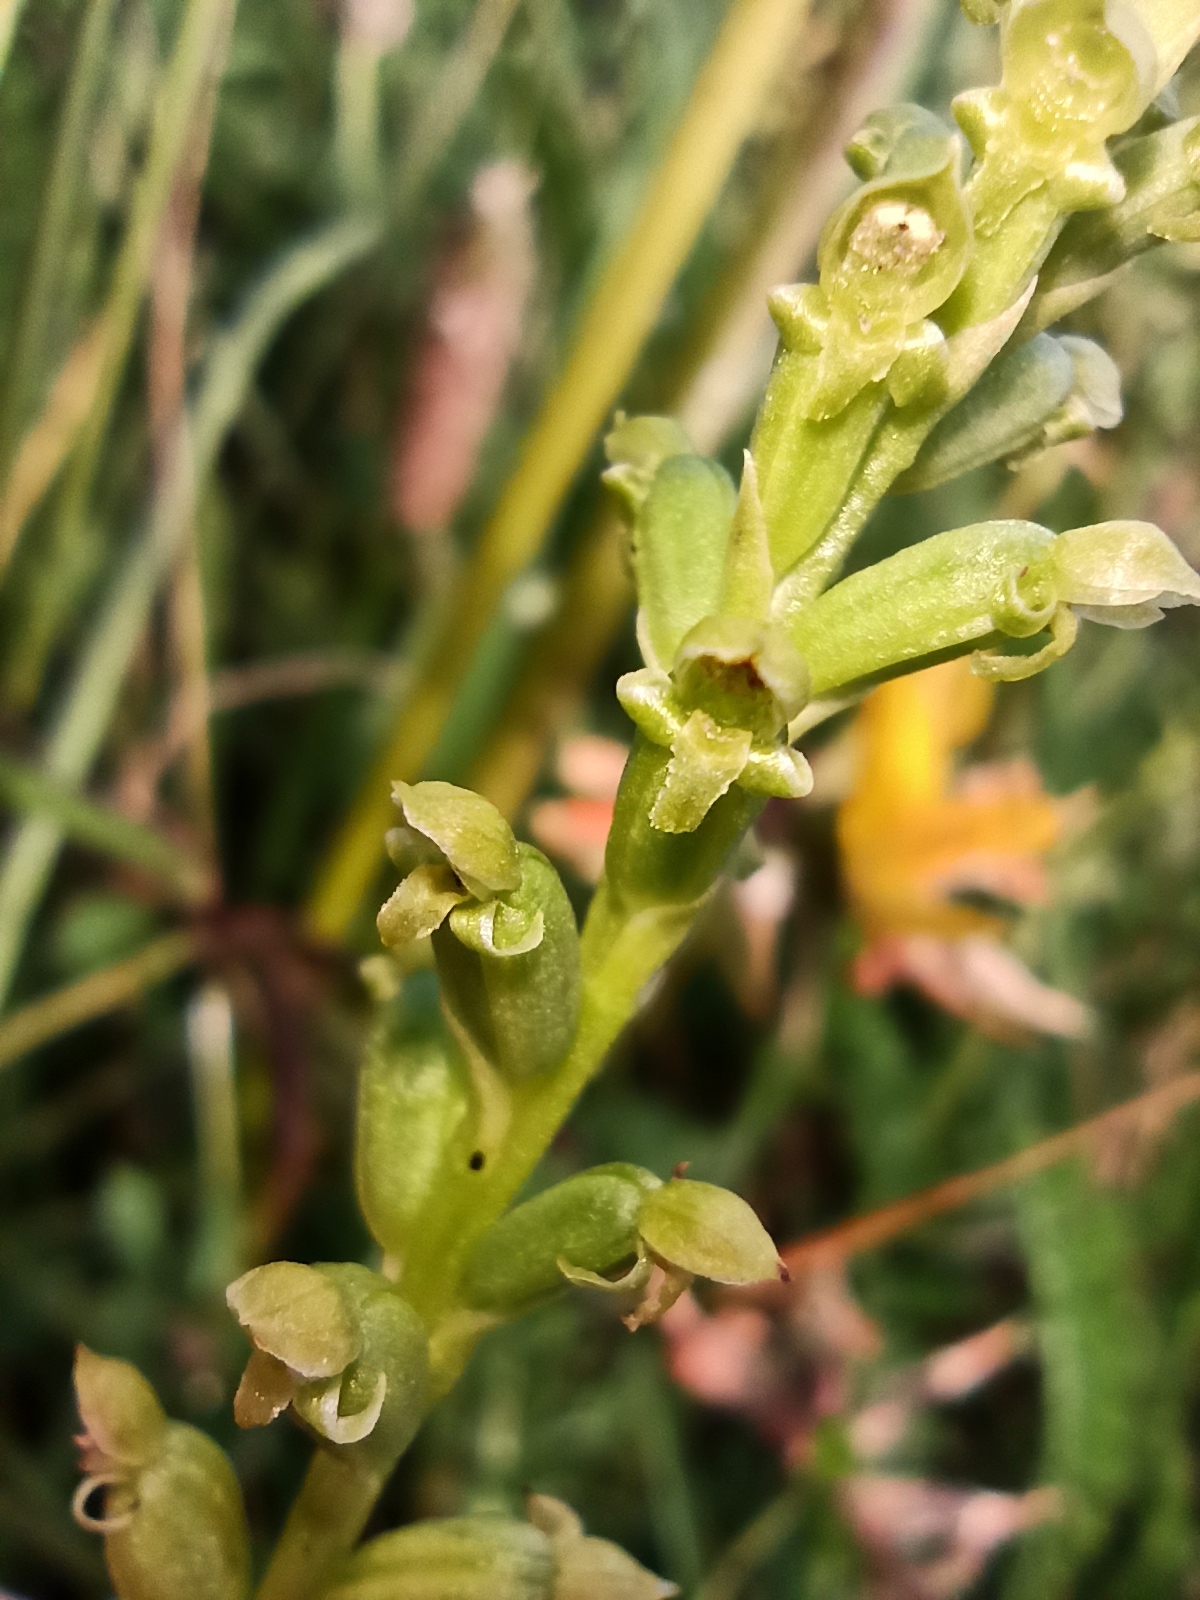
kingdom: Plantae
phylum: Tracheophyta
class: Liliopsida
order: Asparagales
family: Orchidaceae
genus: Microtis
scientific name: Microtis unifolia
